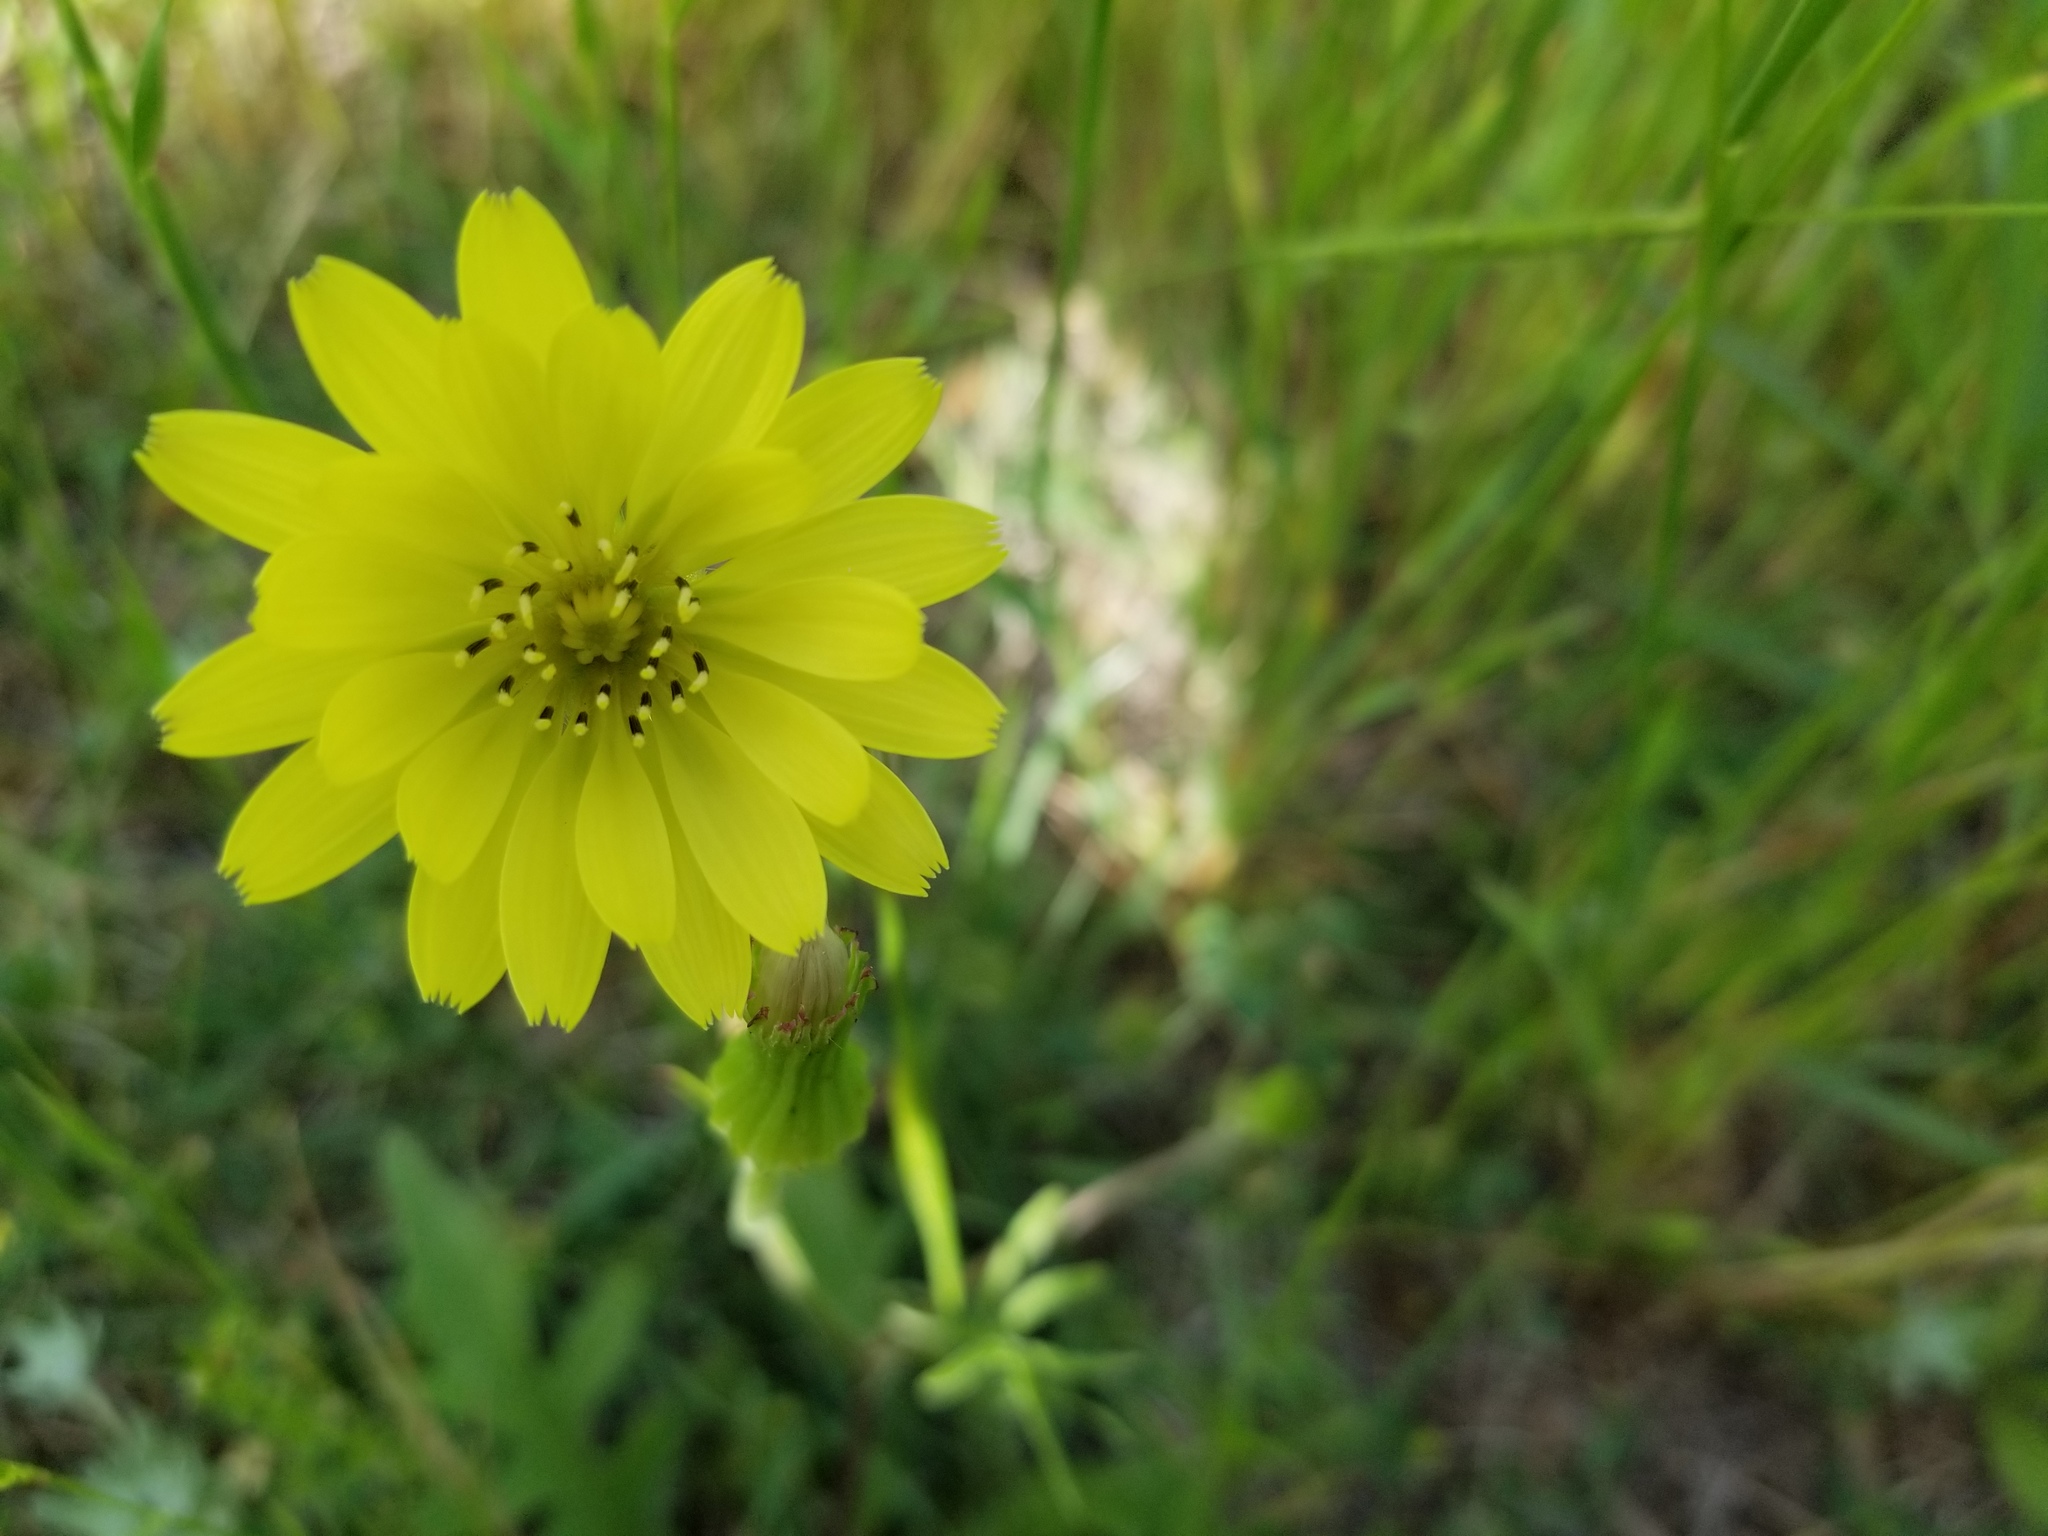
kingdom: Plantae
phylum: Tracheophyta
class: Magnoliopsida
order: Asterales
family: Asteraceae
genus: Pyrrhopappus
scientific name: Pyrrhopappus pauciflorus
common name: Texas false dandelion
